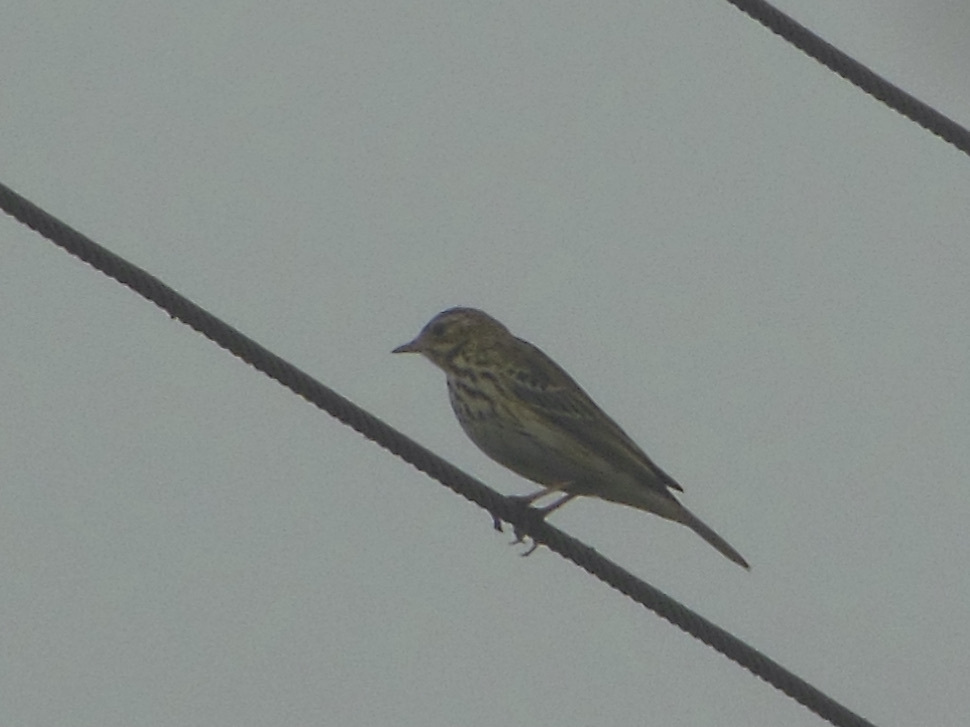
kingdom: Animalia
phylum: Chordata
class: Aves
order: Passeriformes
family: Motacillidae
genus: Anthus
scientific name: Anthus hodgsoni
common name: Olive-backed pipit
